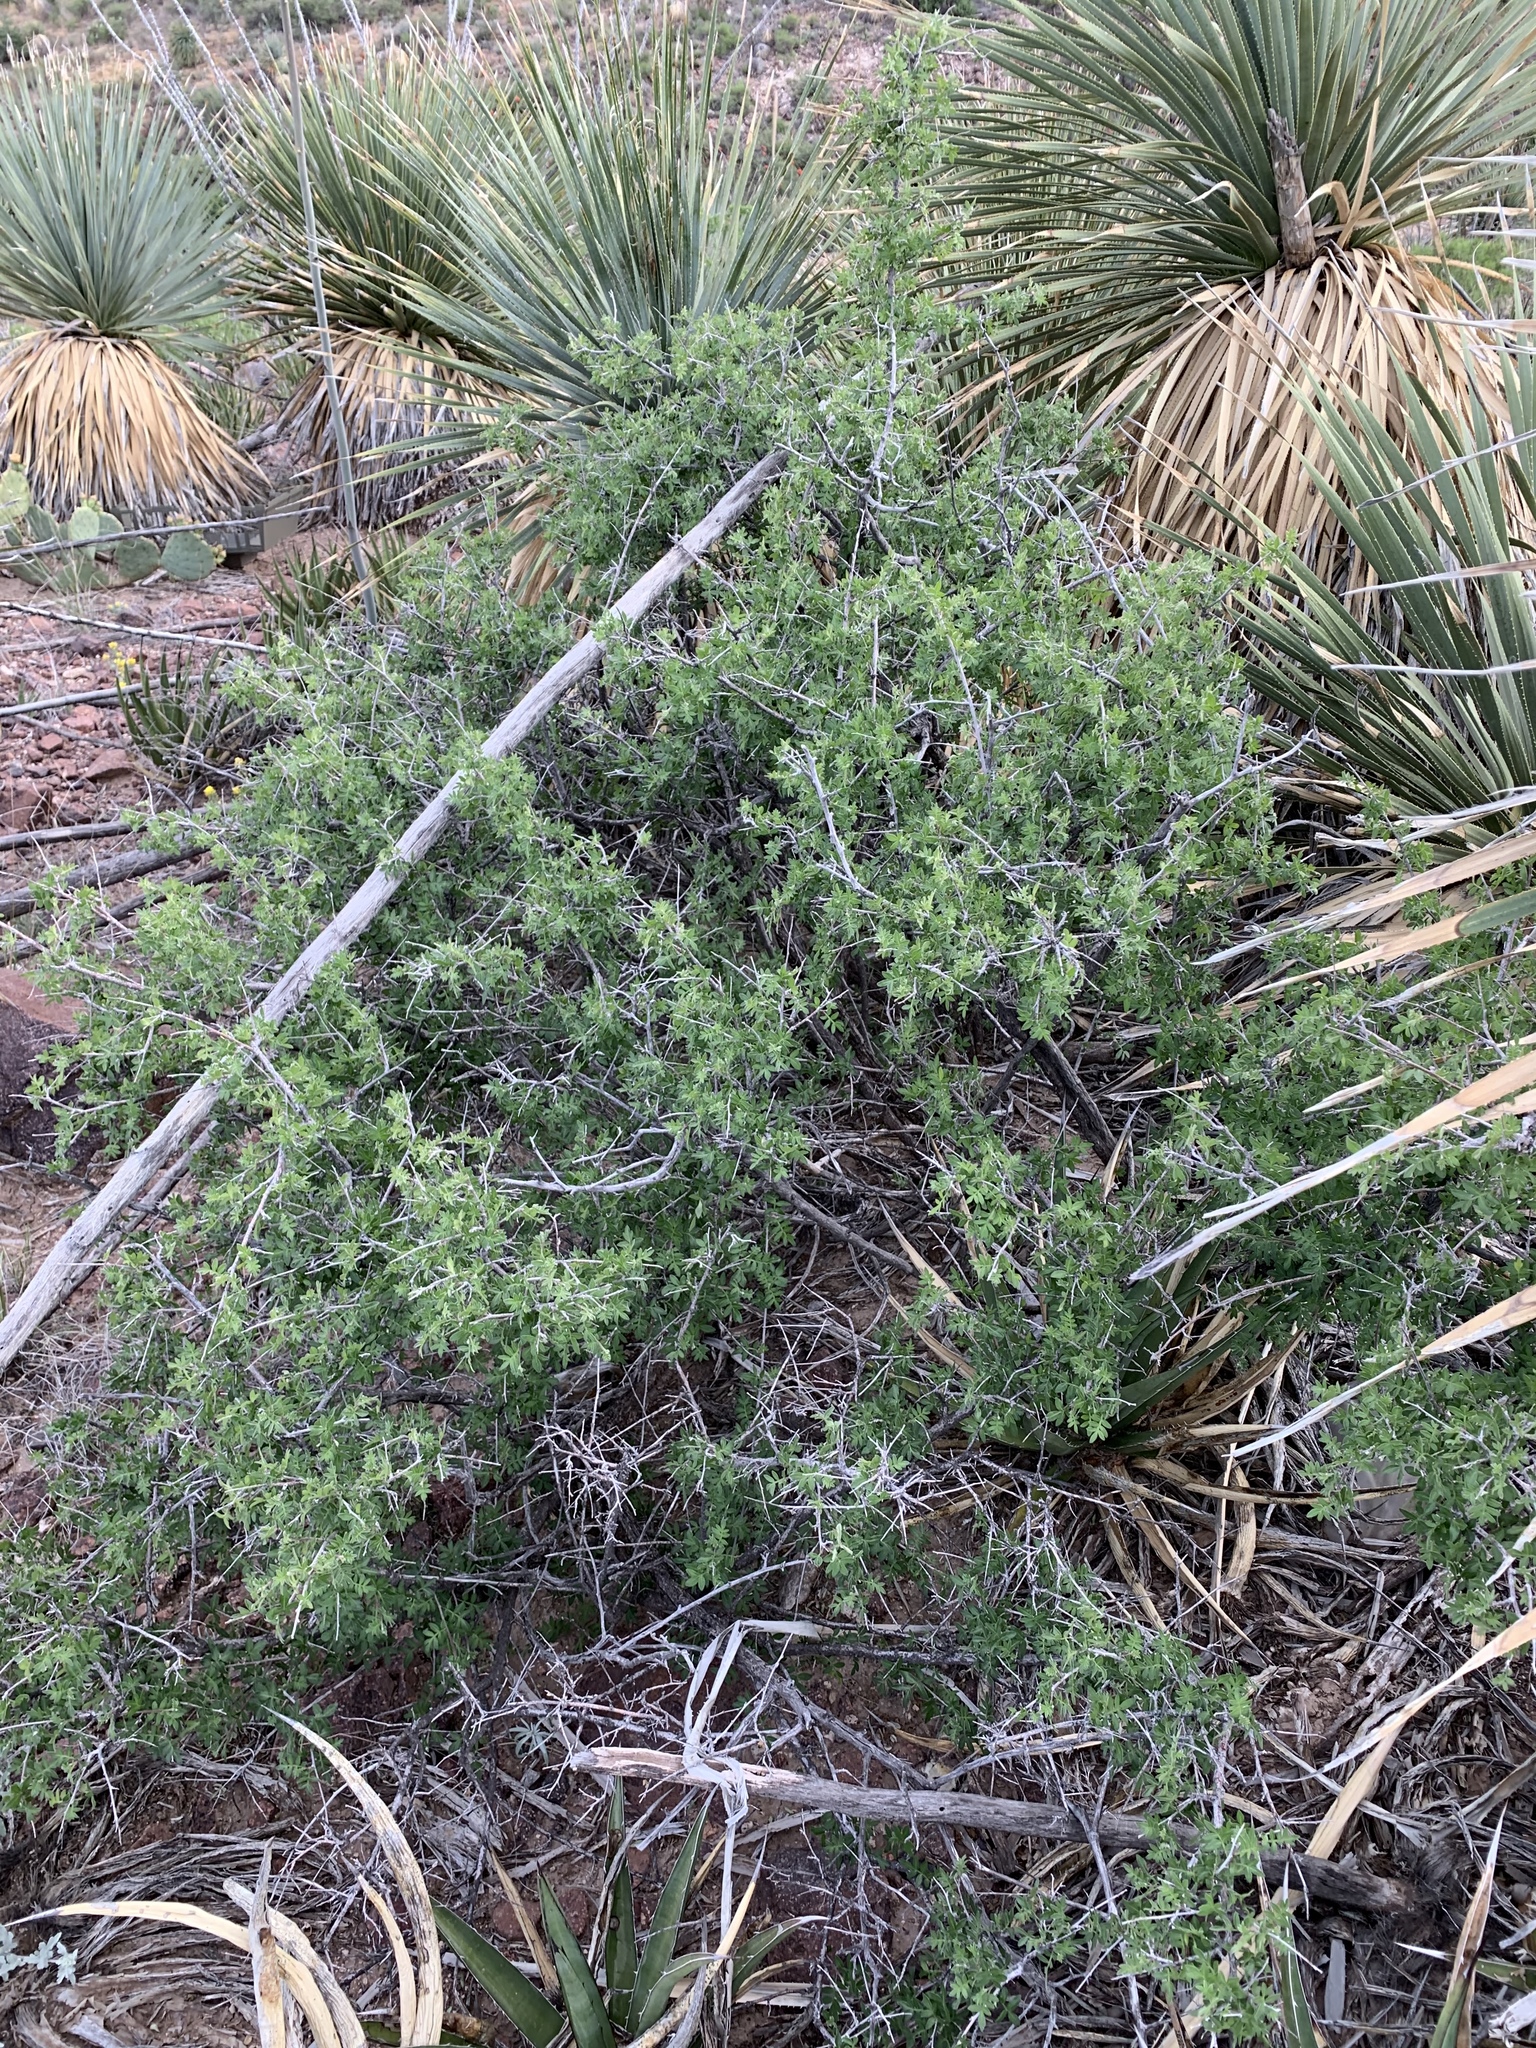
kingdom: Plantae
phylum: Tracheophyta
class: Magnoliopsida
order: Sapindales
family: Anacardiaceae
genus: Rhus
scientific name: Rhus microphylla
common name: Desert sumac
